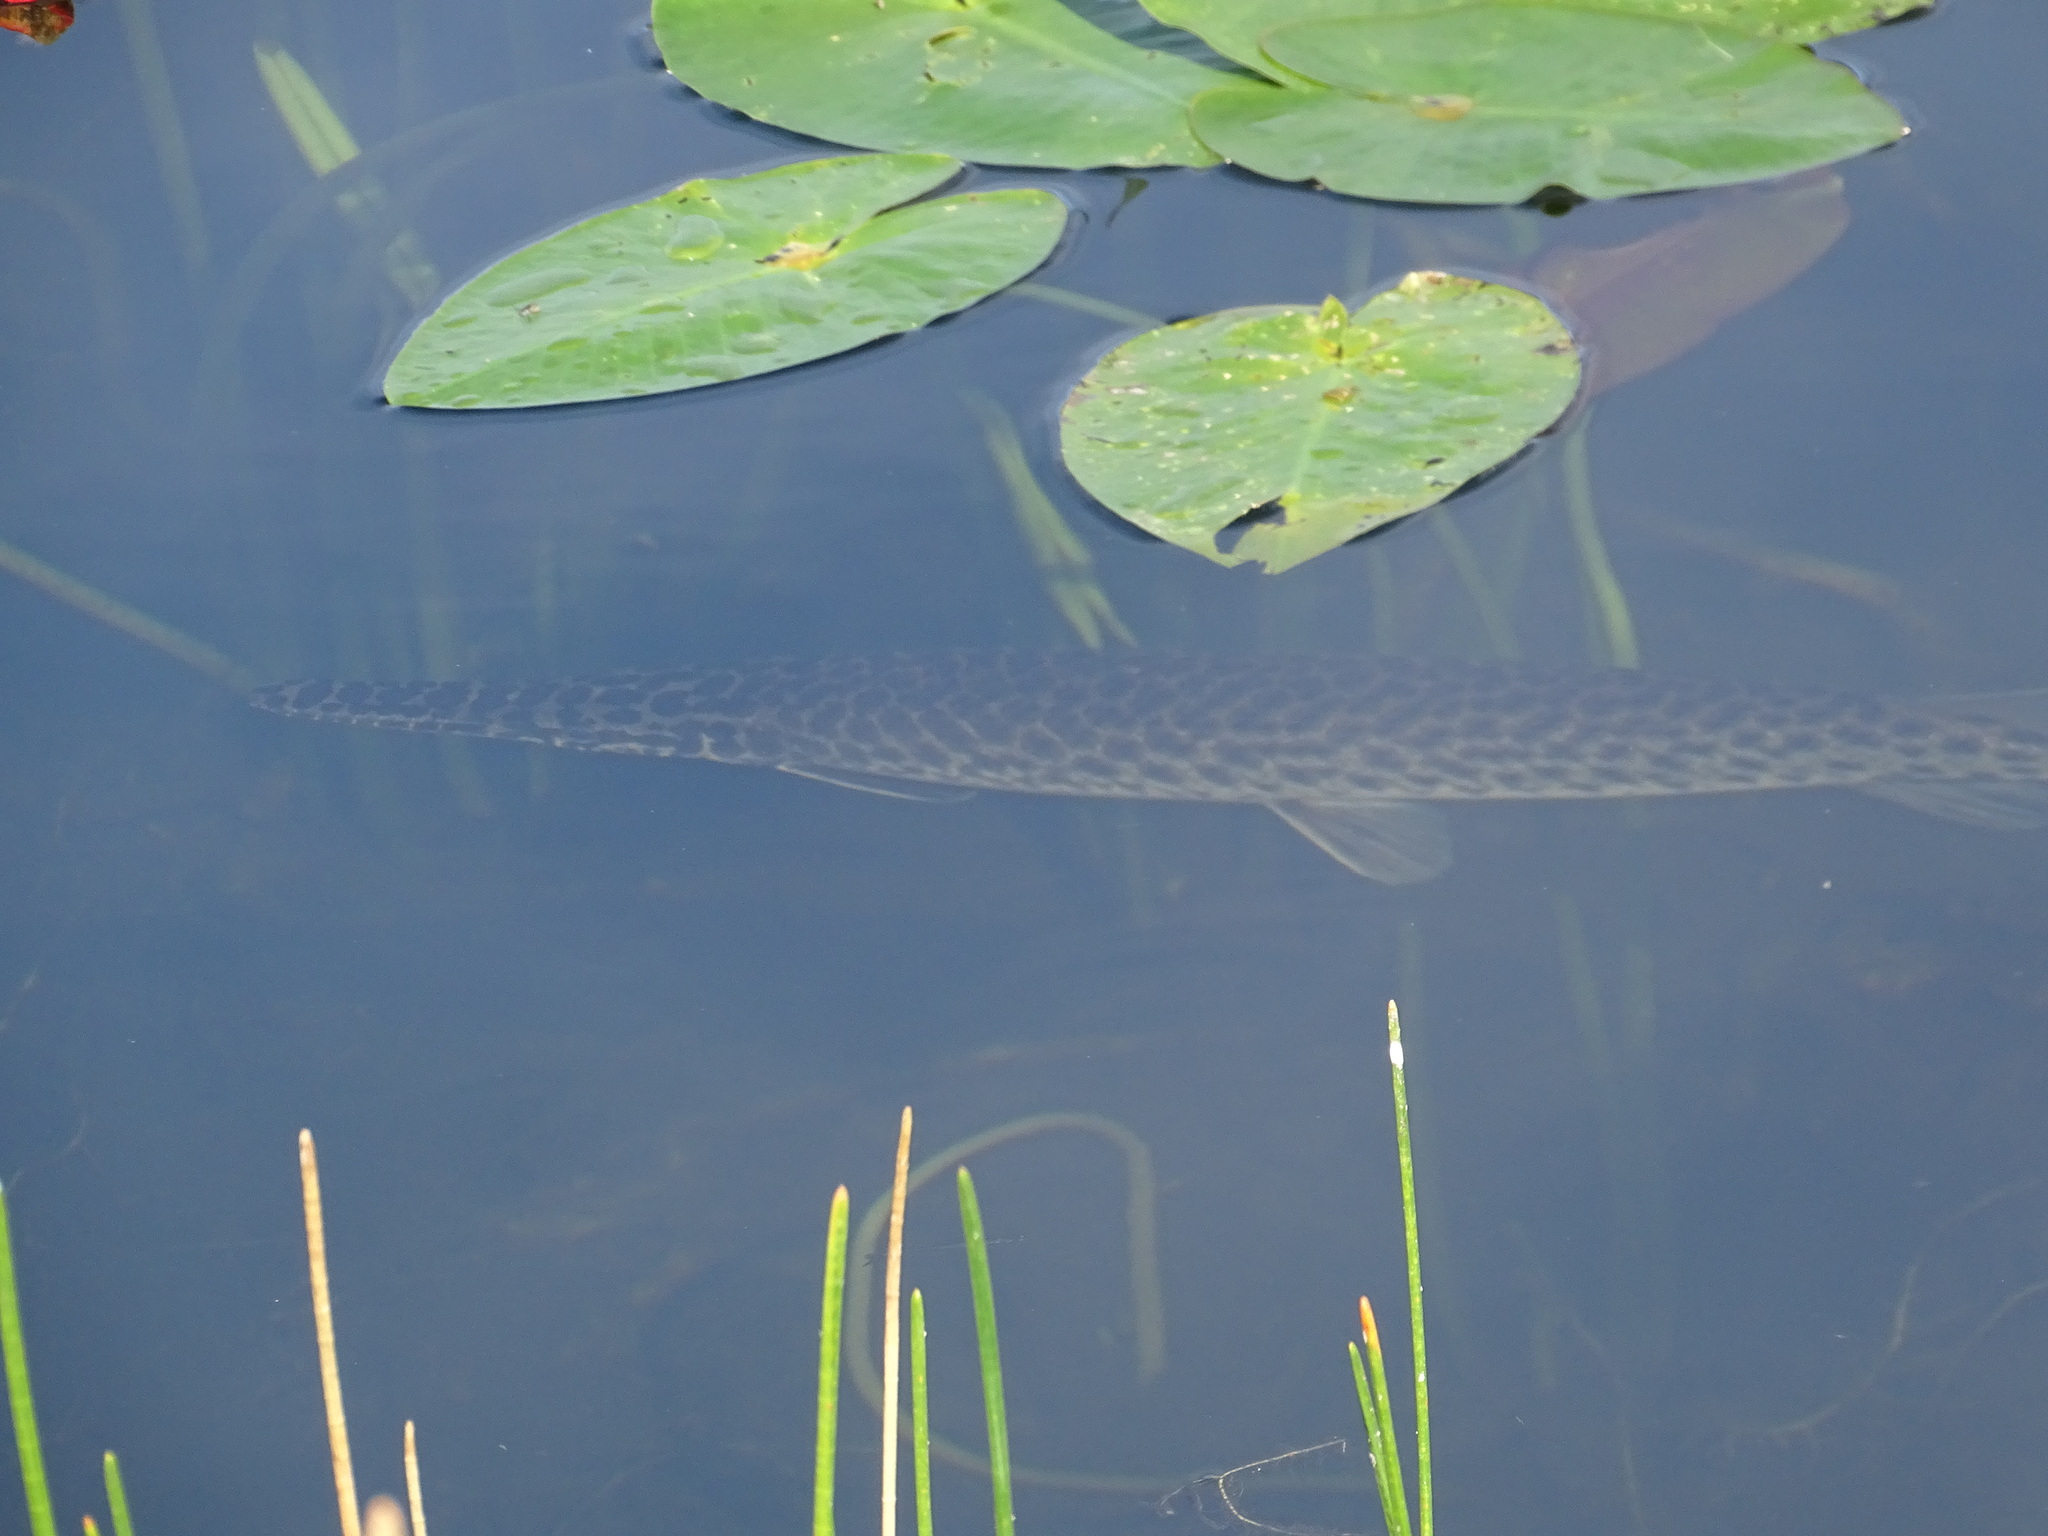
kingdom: Animalia
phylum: Chordata
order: Lepisosteiformes
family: Lepisosteidae
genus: Lepisosteus
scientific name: Lepisosteus platyrhincus
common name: Florida gar
